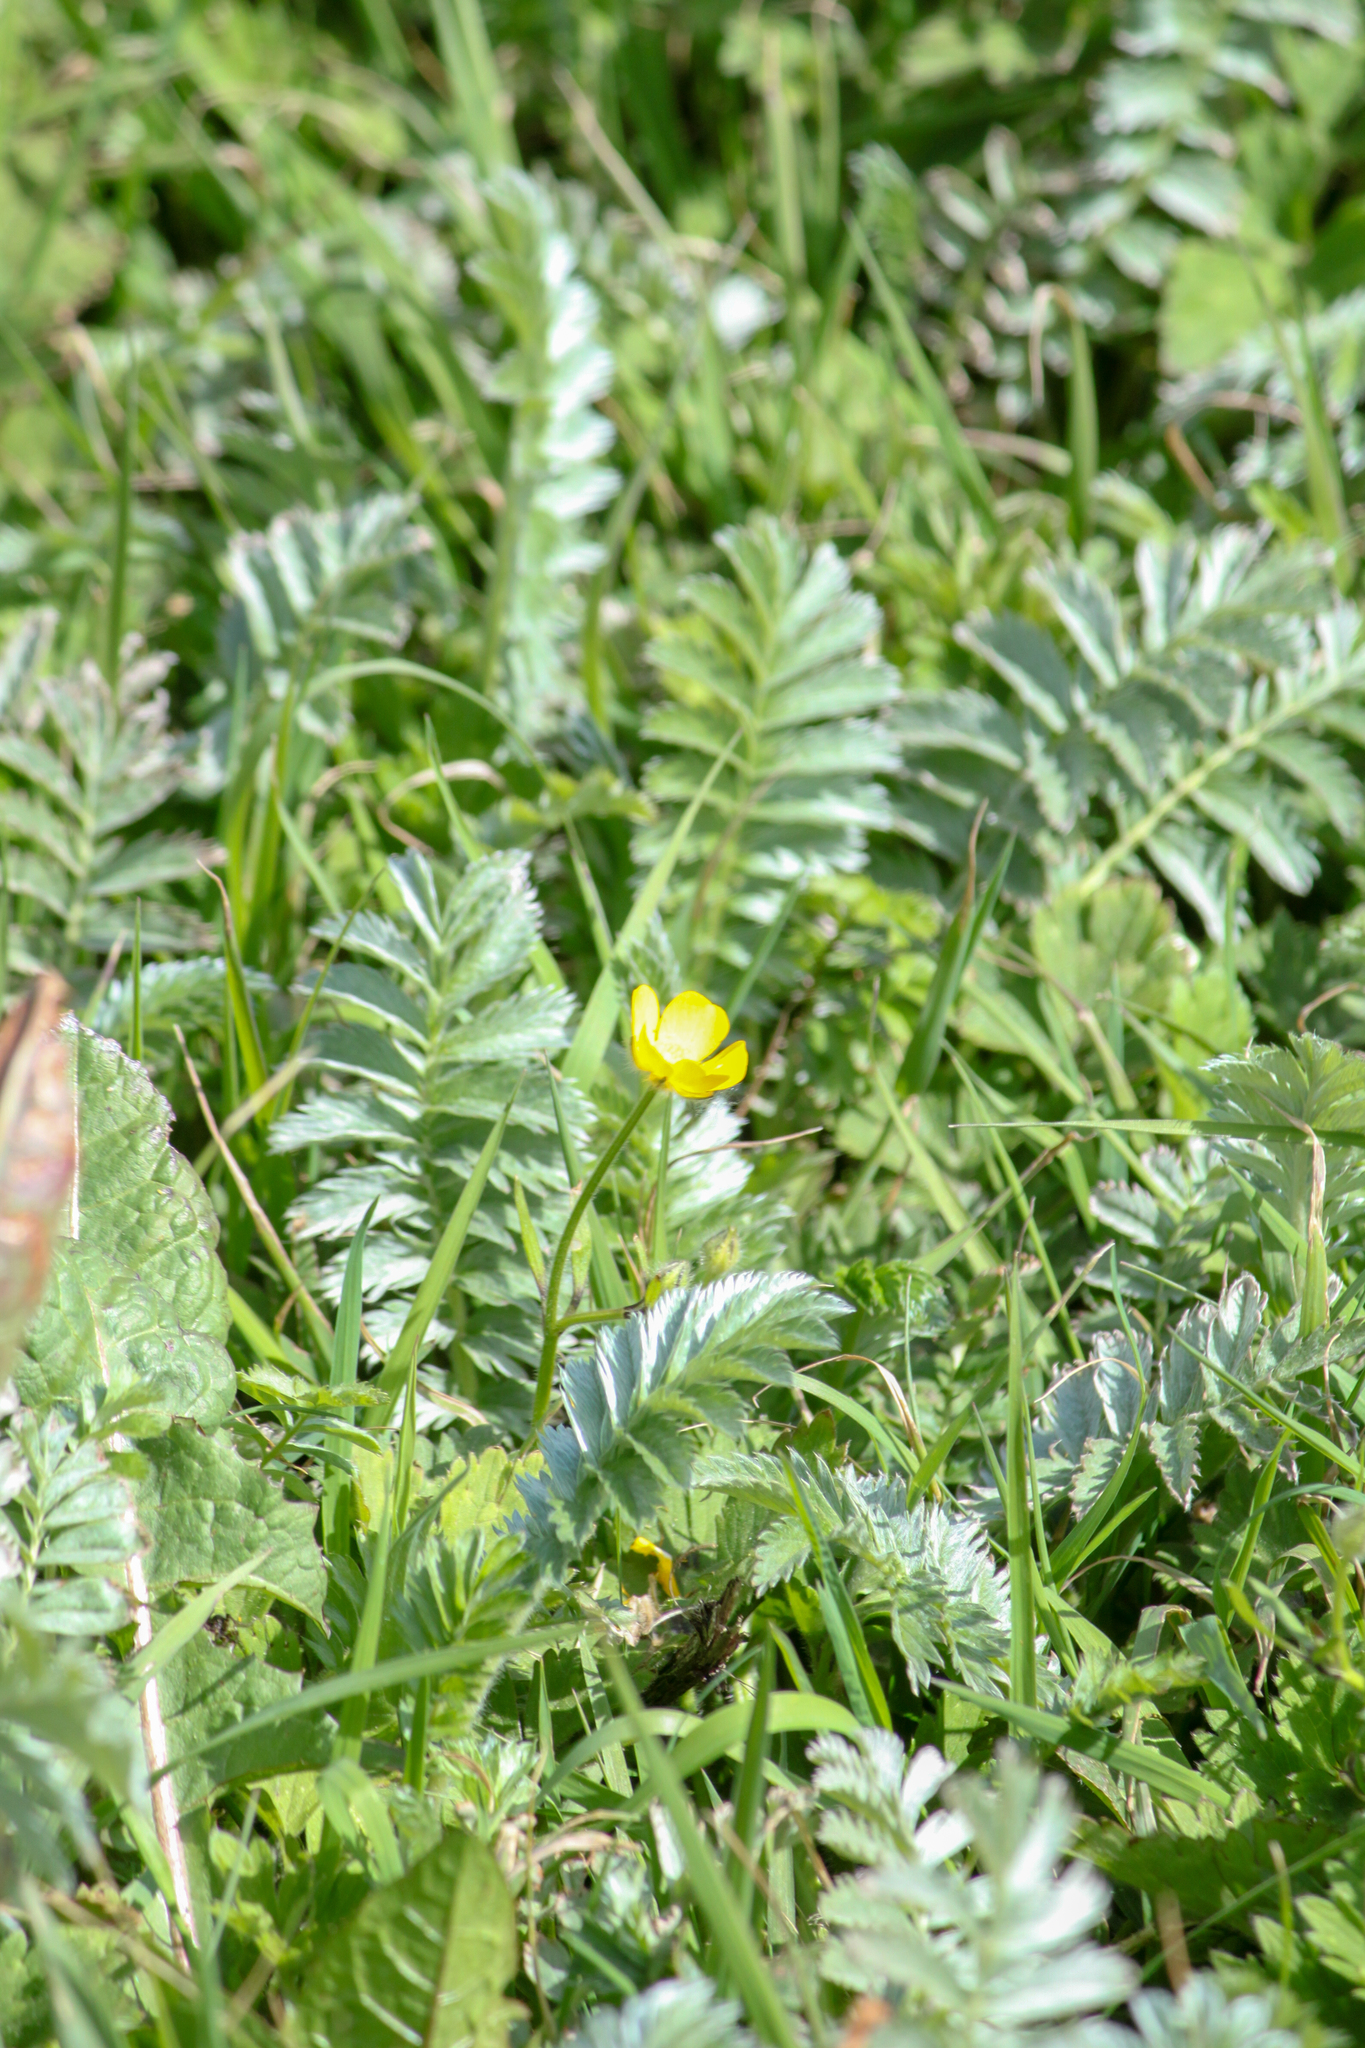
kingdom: Plantae
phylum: Tracheophyta
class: Magnoliopsida
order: Rosales
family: Rosaceae
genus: Argentina
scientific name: Argentina anserina
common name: Common silverweed
